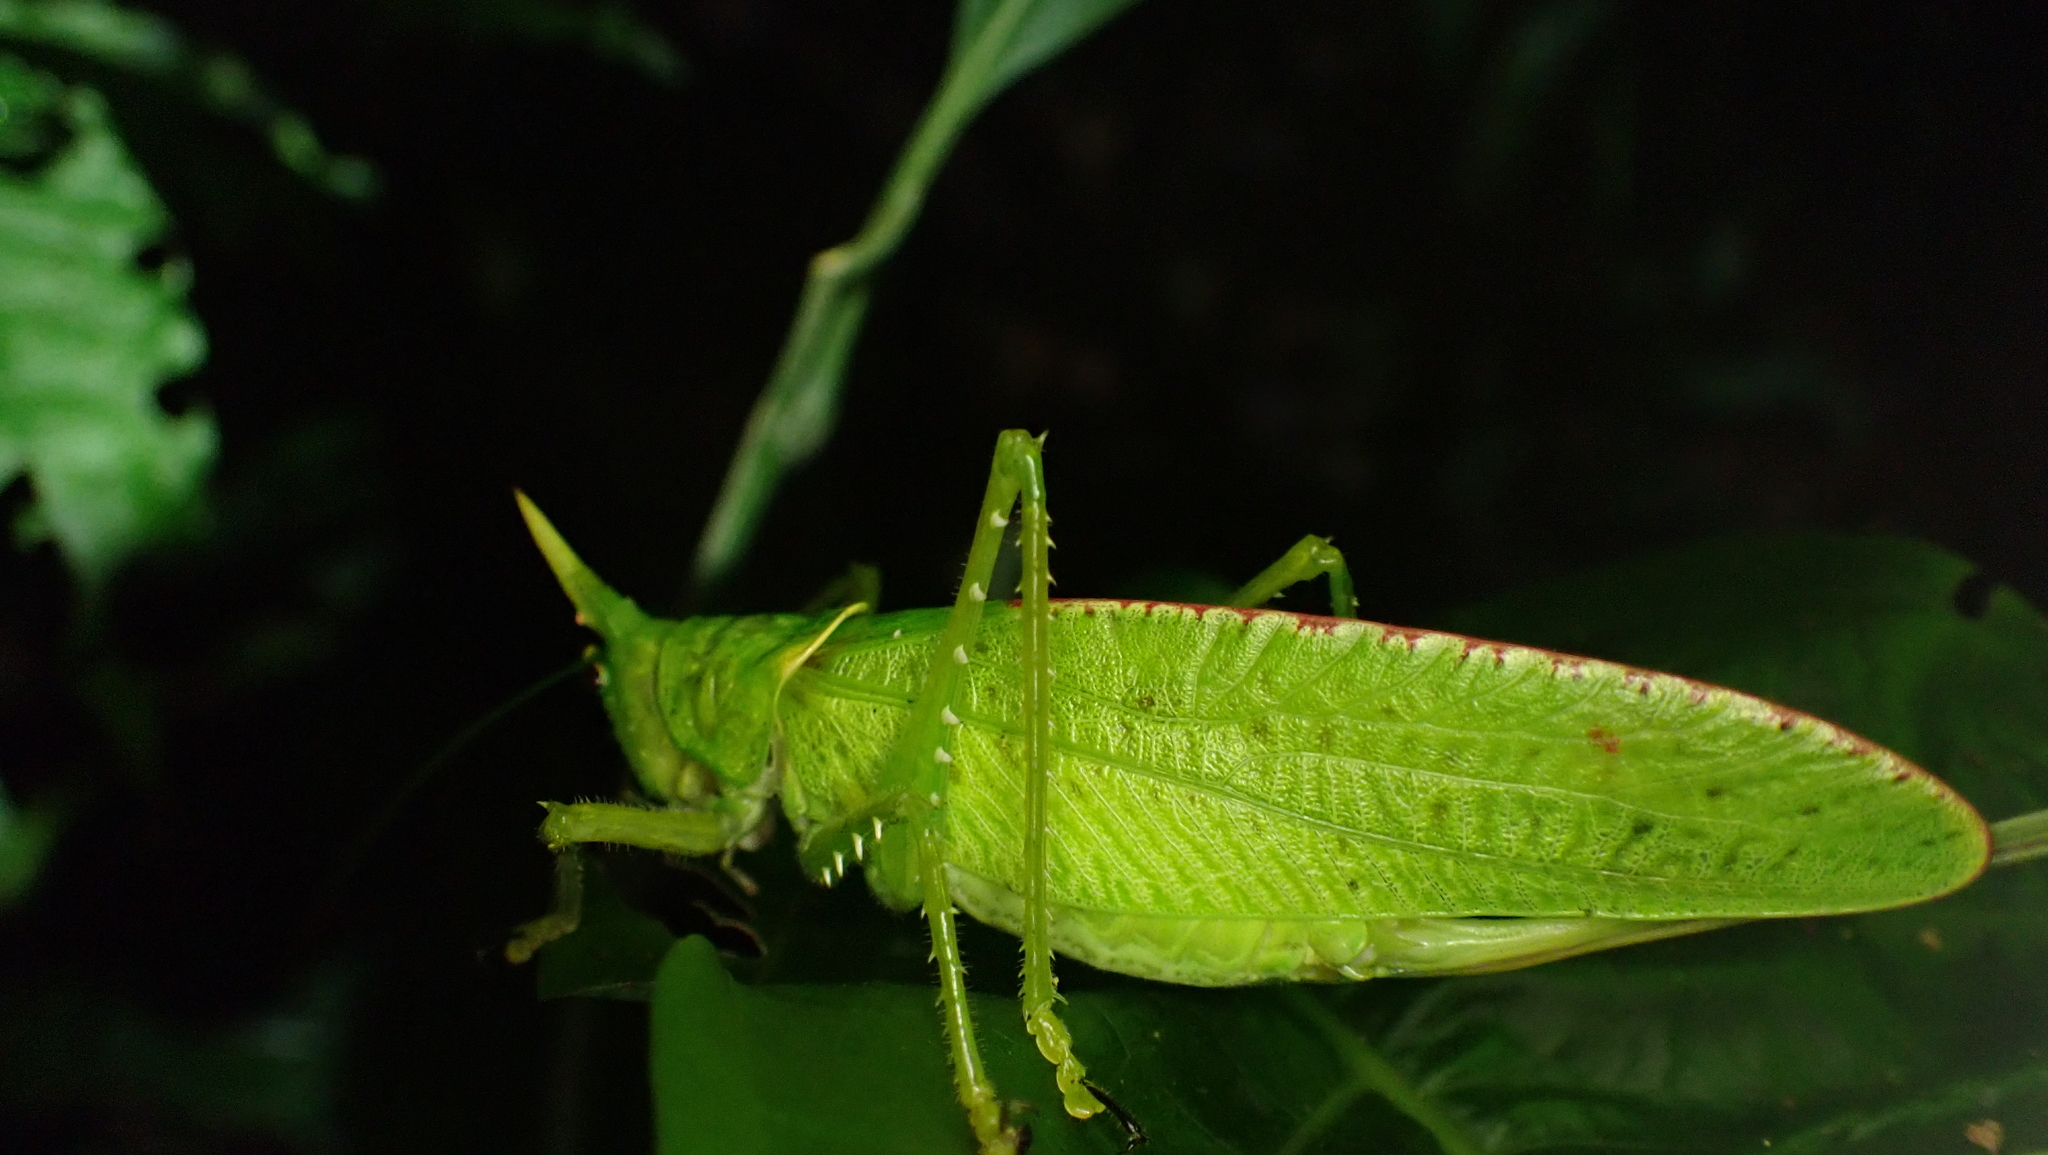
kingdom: Animalia
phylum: Arthropoda
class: Insecta
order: Orthoptera
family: Tettigoniidae
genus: Copiphora
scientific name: Copiphora rhinoceros
